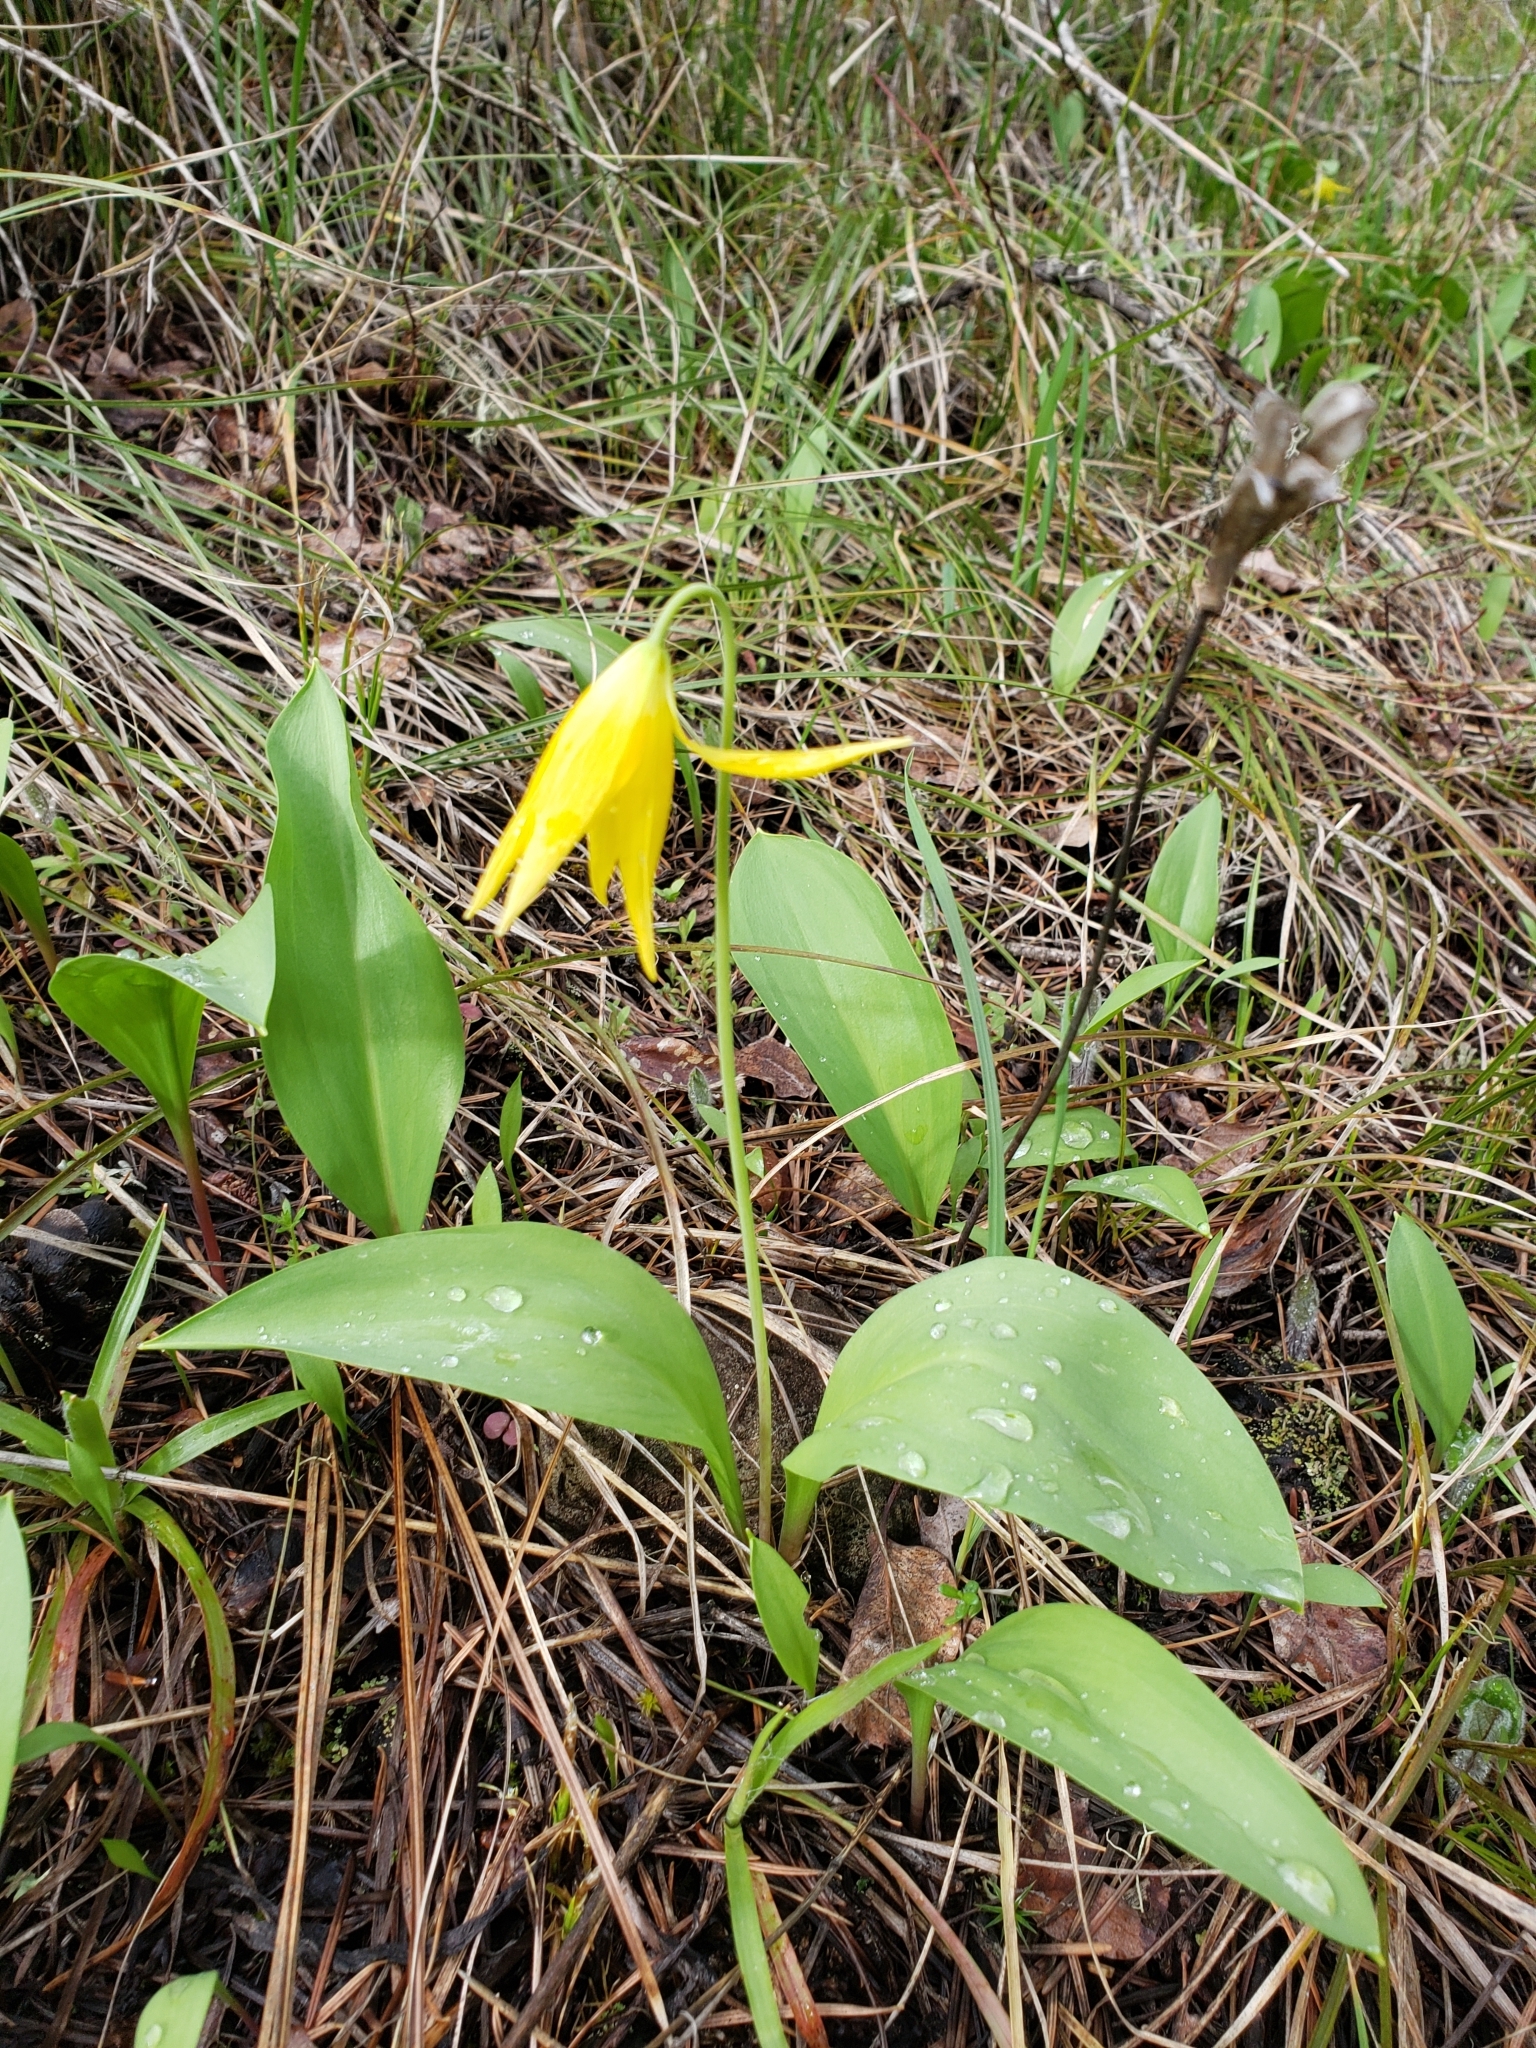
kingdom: Plantae
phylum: Tracheophyta
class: Liliopsida
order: Liliales
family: Liliaceae
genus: Erythronium
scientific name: Erythronium grandiflorum
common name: Avalanche-lily
